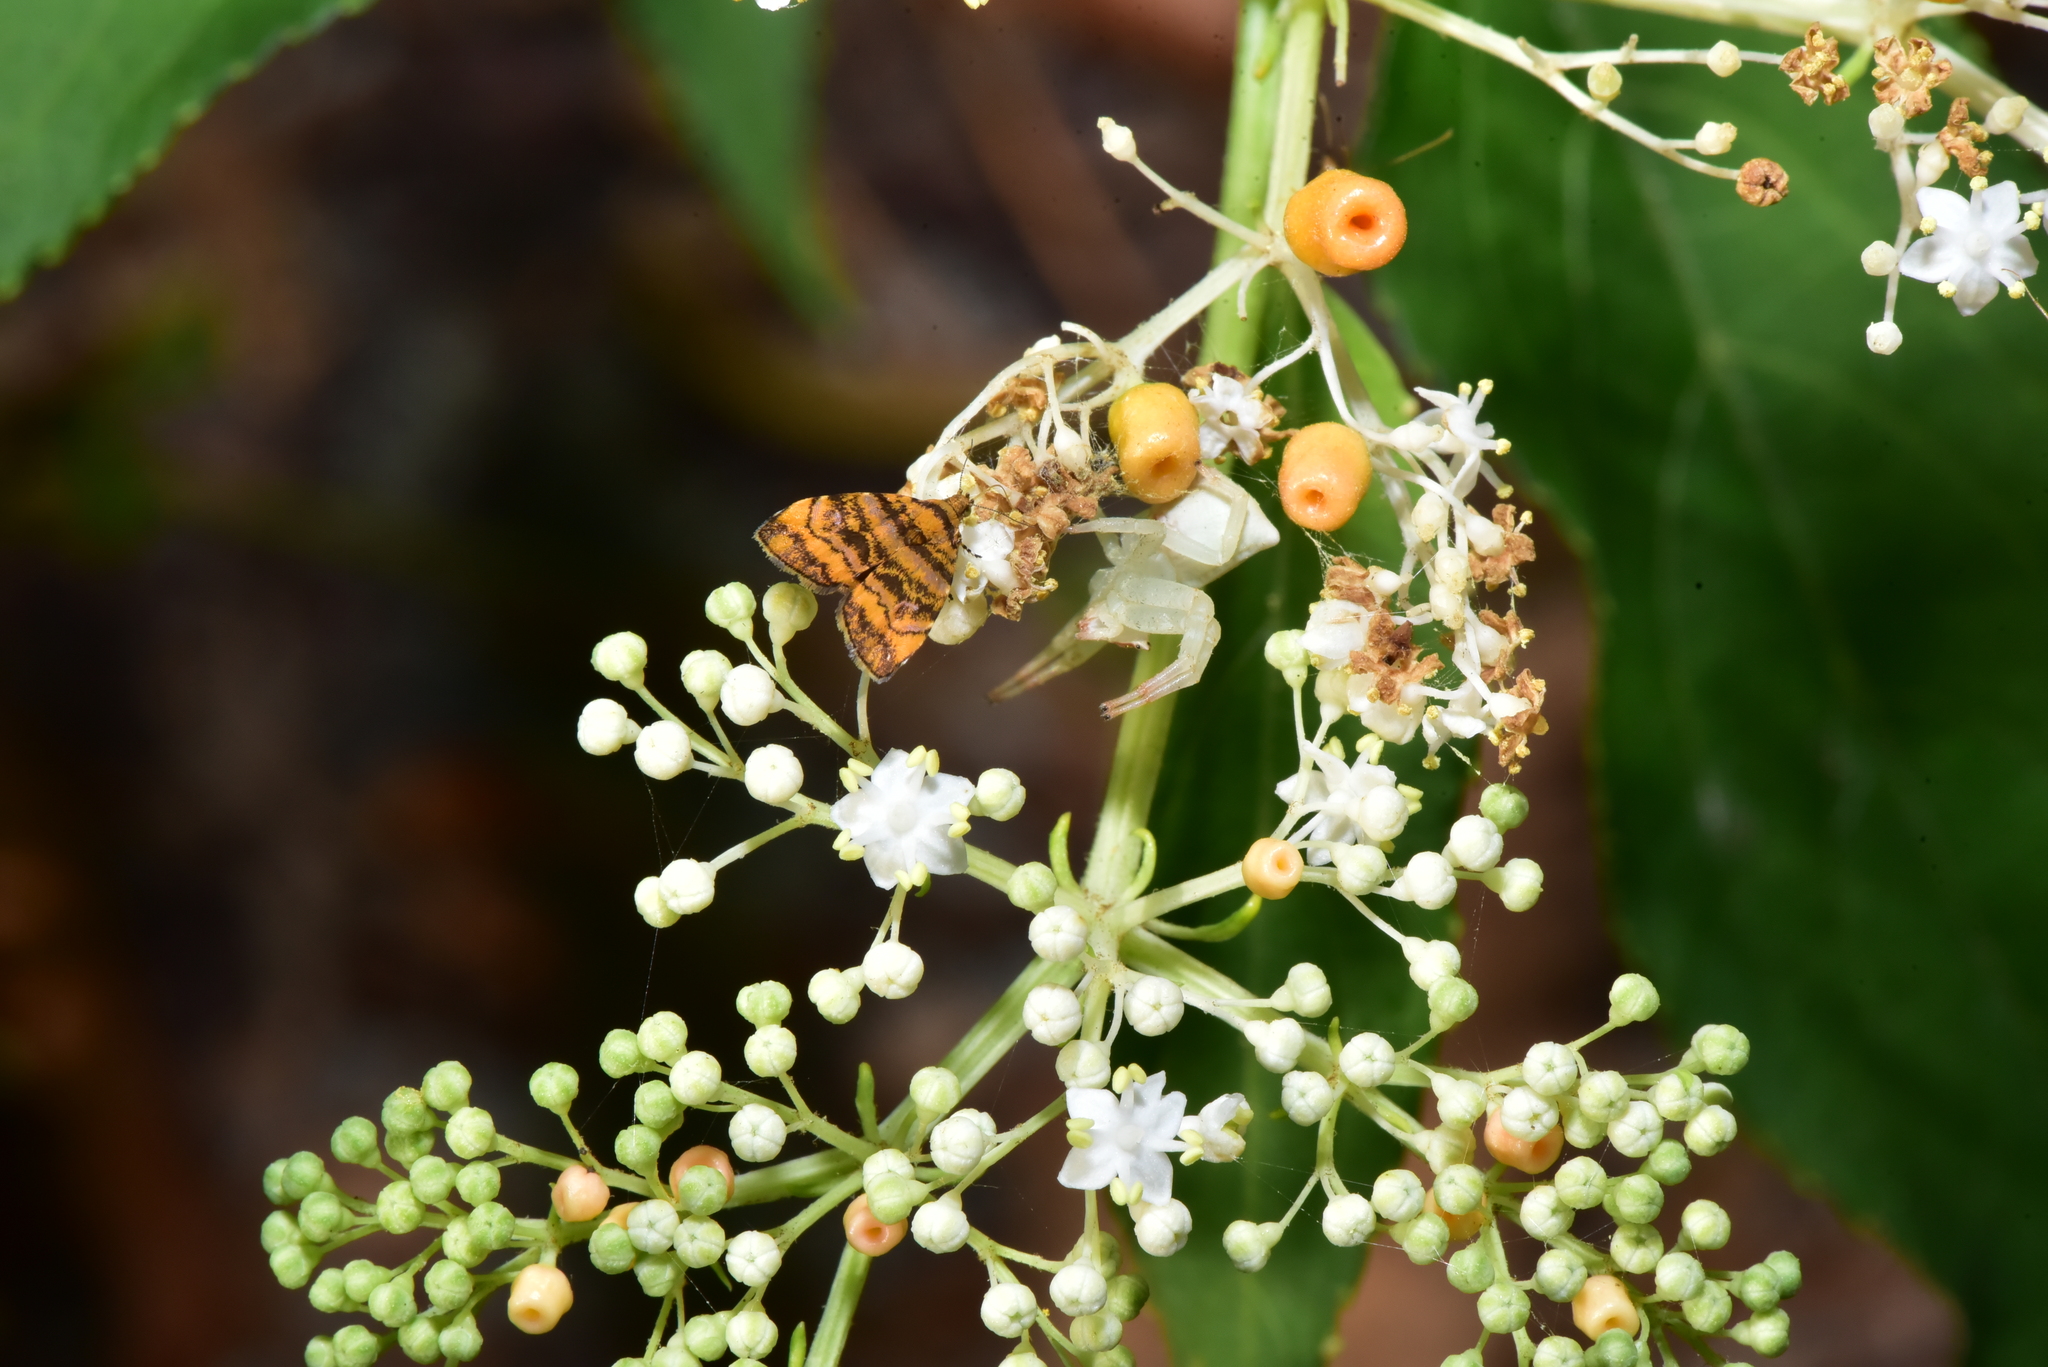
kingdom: Animalia
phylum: Arthropoda
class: Insecta
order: Lepidoptera
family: Choreutidae
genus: Anthophila
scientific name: Anthophila amethystodes
